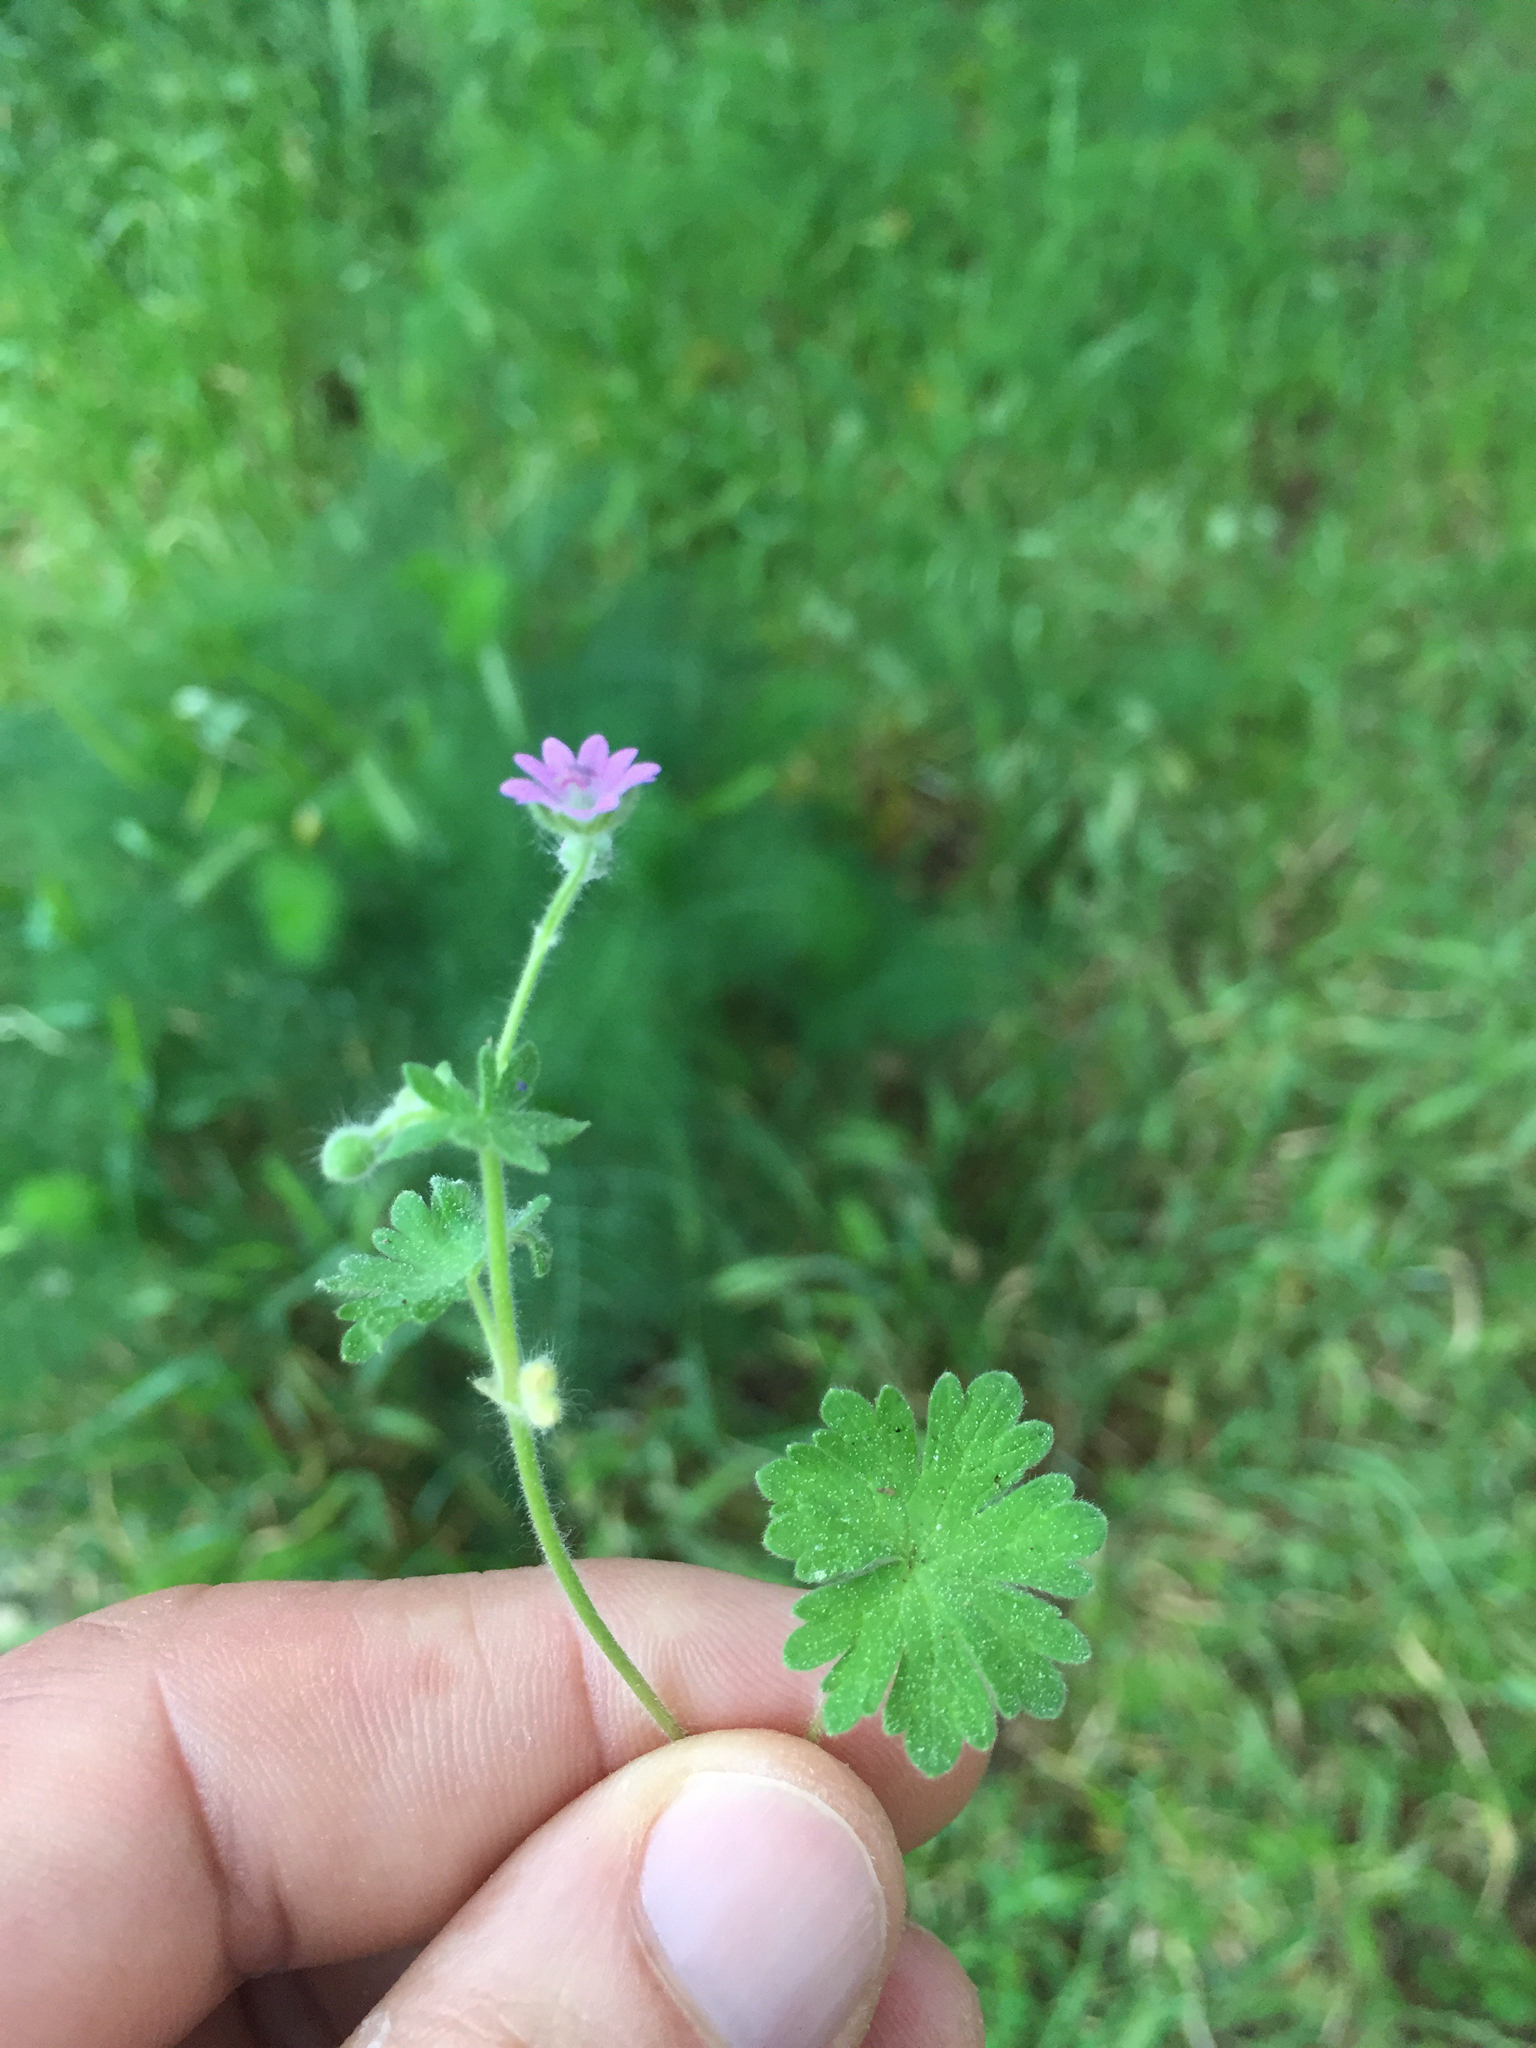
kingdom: Plantae
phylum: Tracheophyta
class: Magnoliopsida
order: Geraniales
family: Geraniaceae
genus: Geranium
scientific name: Geranium molle
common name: Dove's-foot crane's-bill
